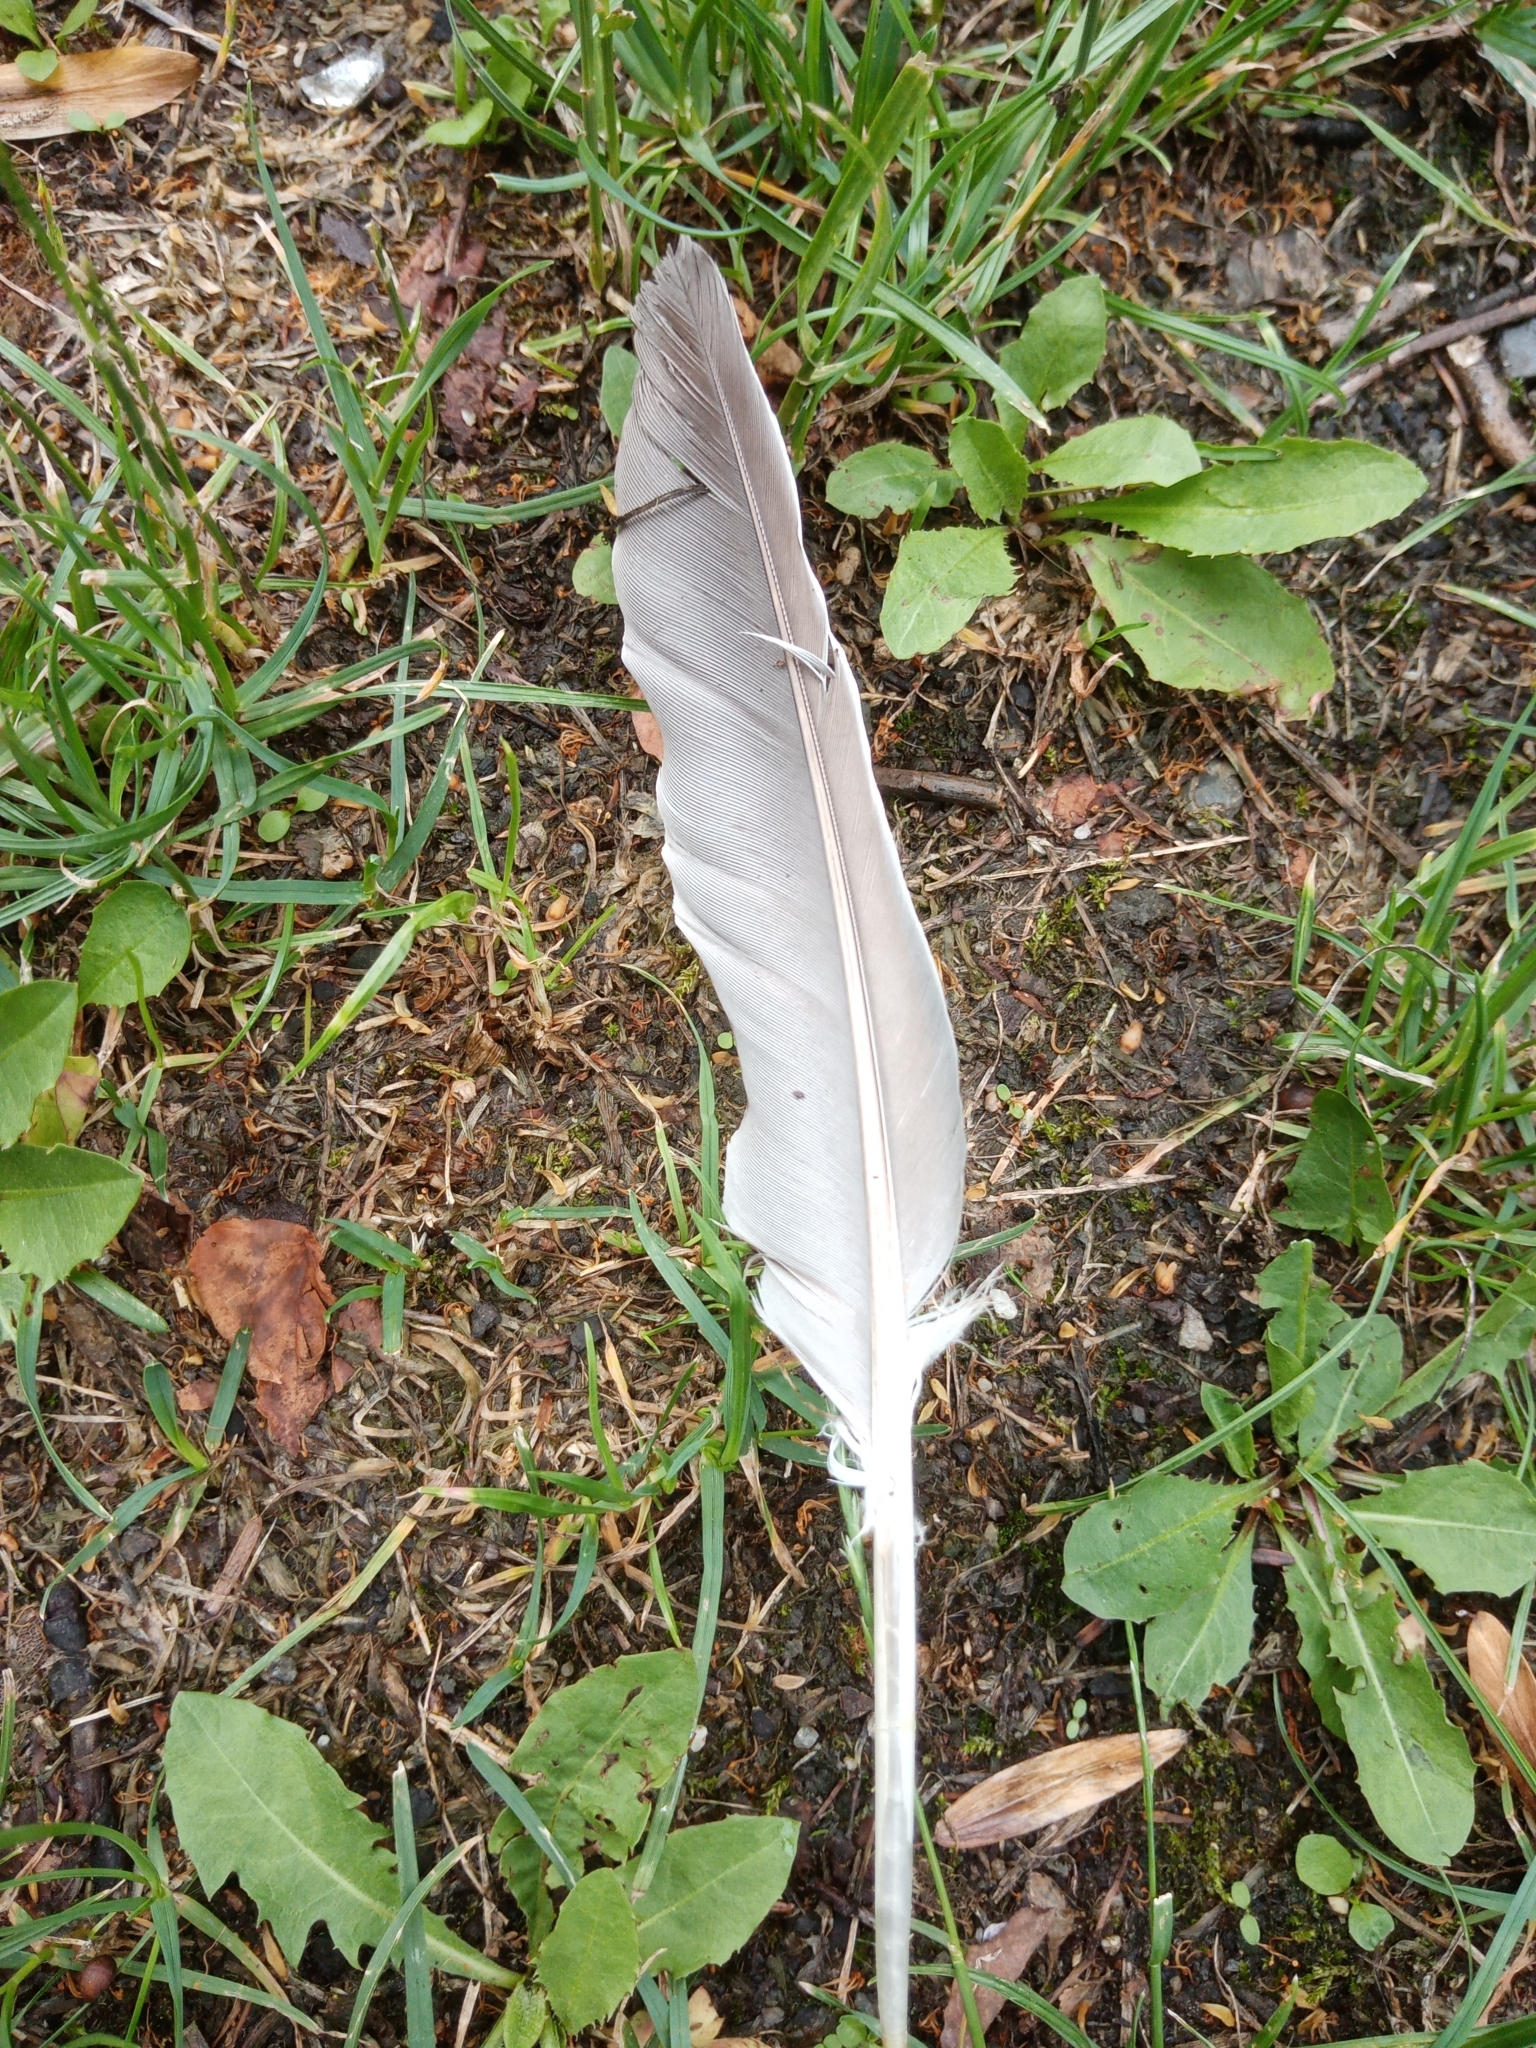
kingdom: Animalia
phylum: Chordata
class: Aves
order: Columbiformes
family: Columbidae
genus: Columba
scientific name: Columba palumbus
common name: Common wood pigeon
